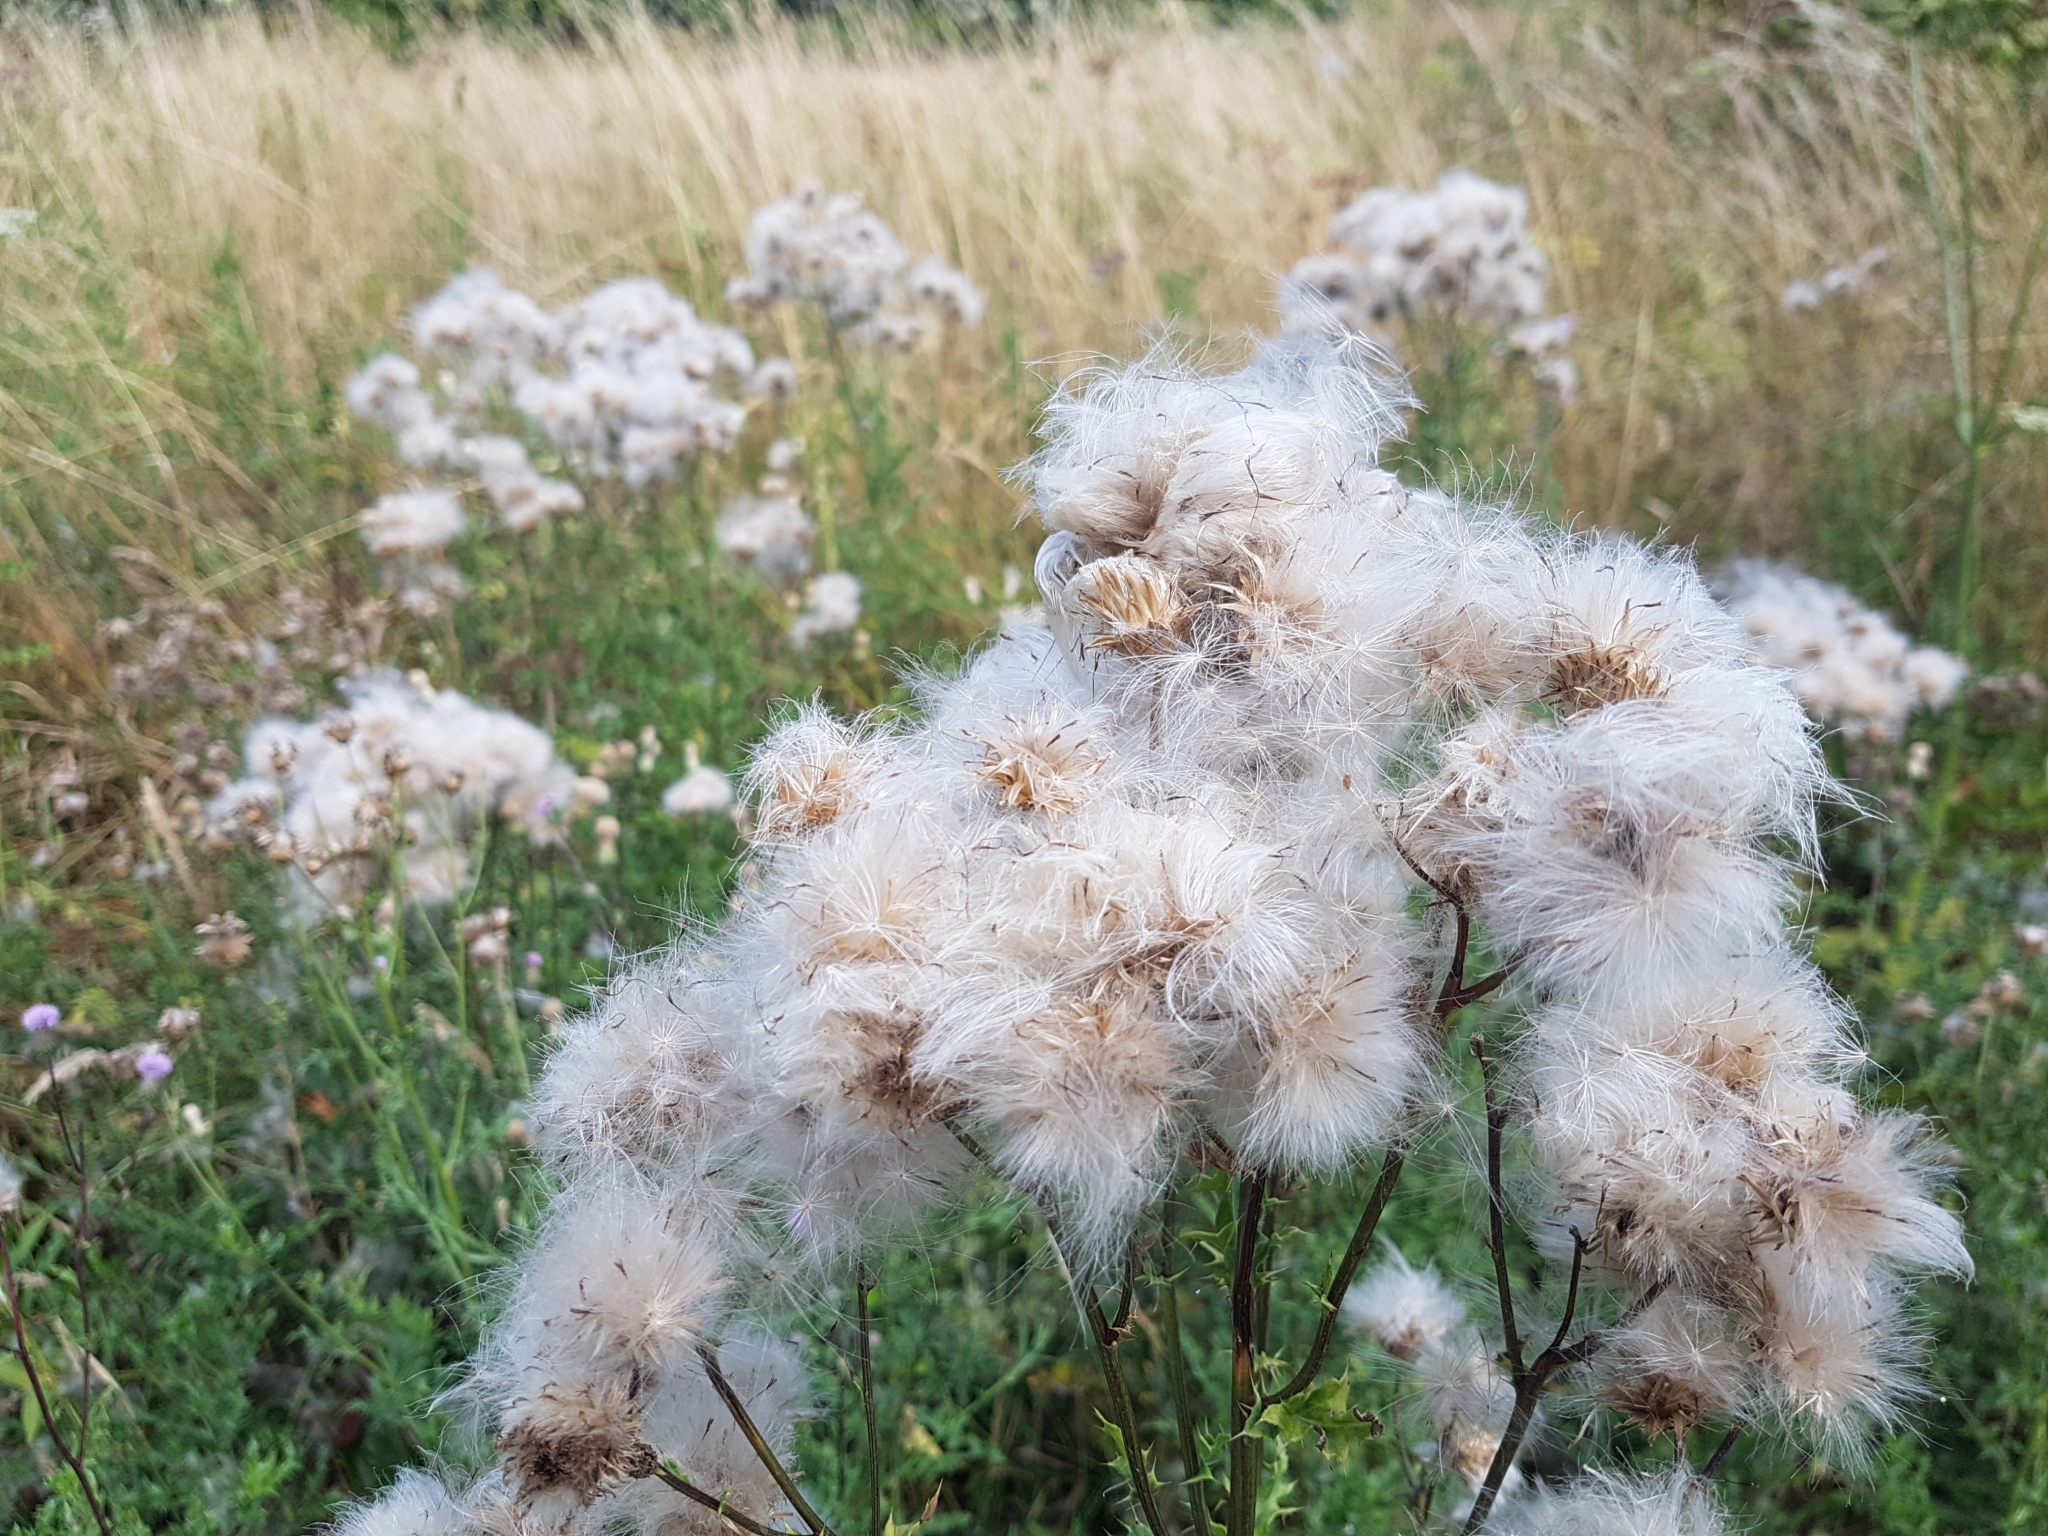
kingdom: Plantae
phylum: Tracheophyta
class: Magnoliopsida
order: Asterales
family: Asteraceae
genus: Cirsium
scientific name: Cirsium arvense
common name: Creeping thistle
